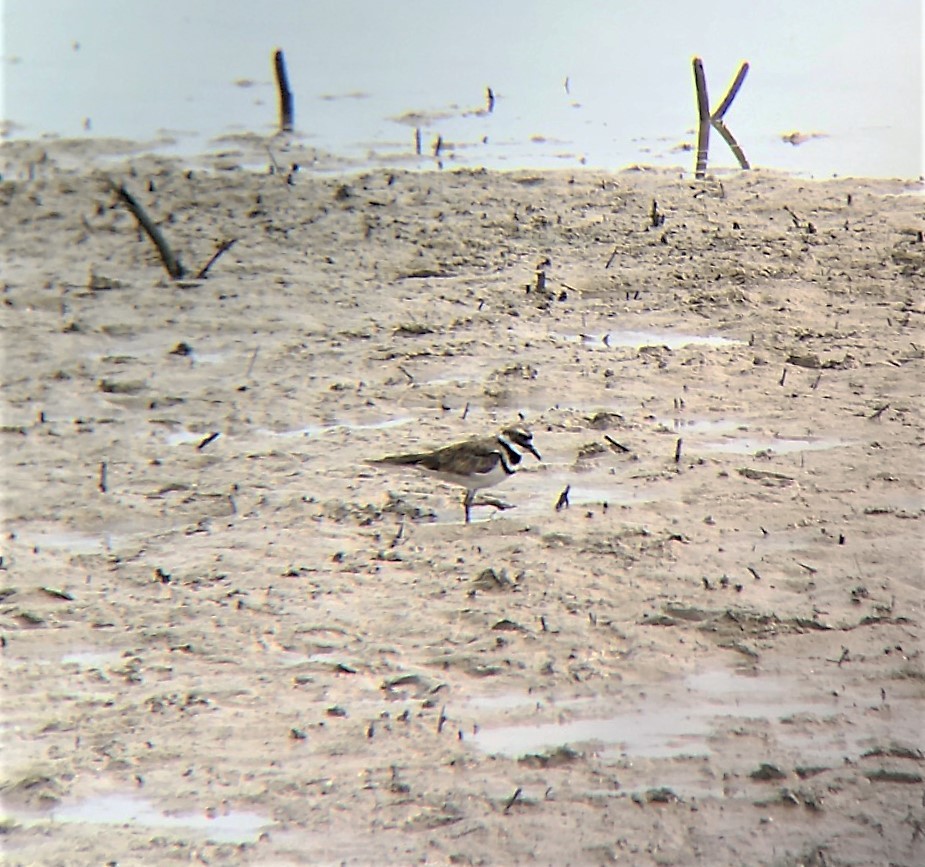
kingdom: Animalia
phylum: Chordata
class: Aves
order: Charadriiformes
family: Charadriidae
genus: Charadrius
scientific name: Charadrius vociferus
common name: Killdeer
